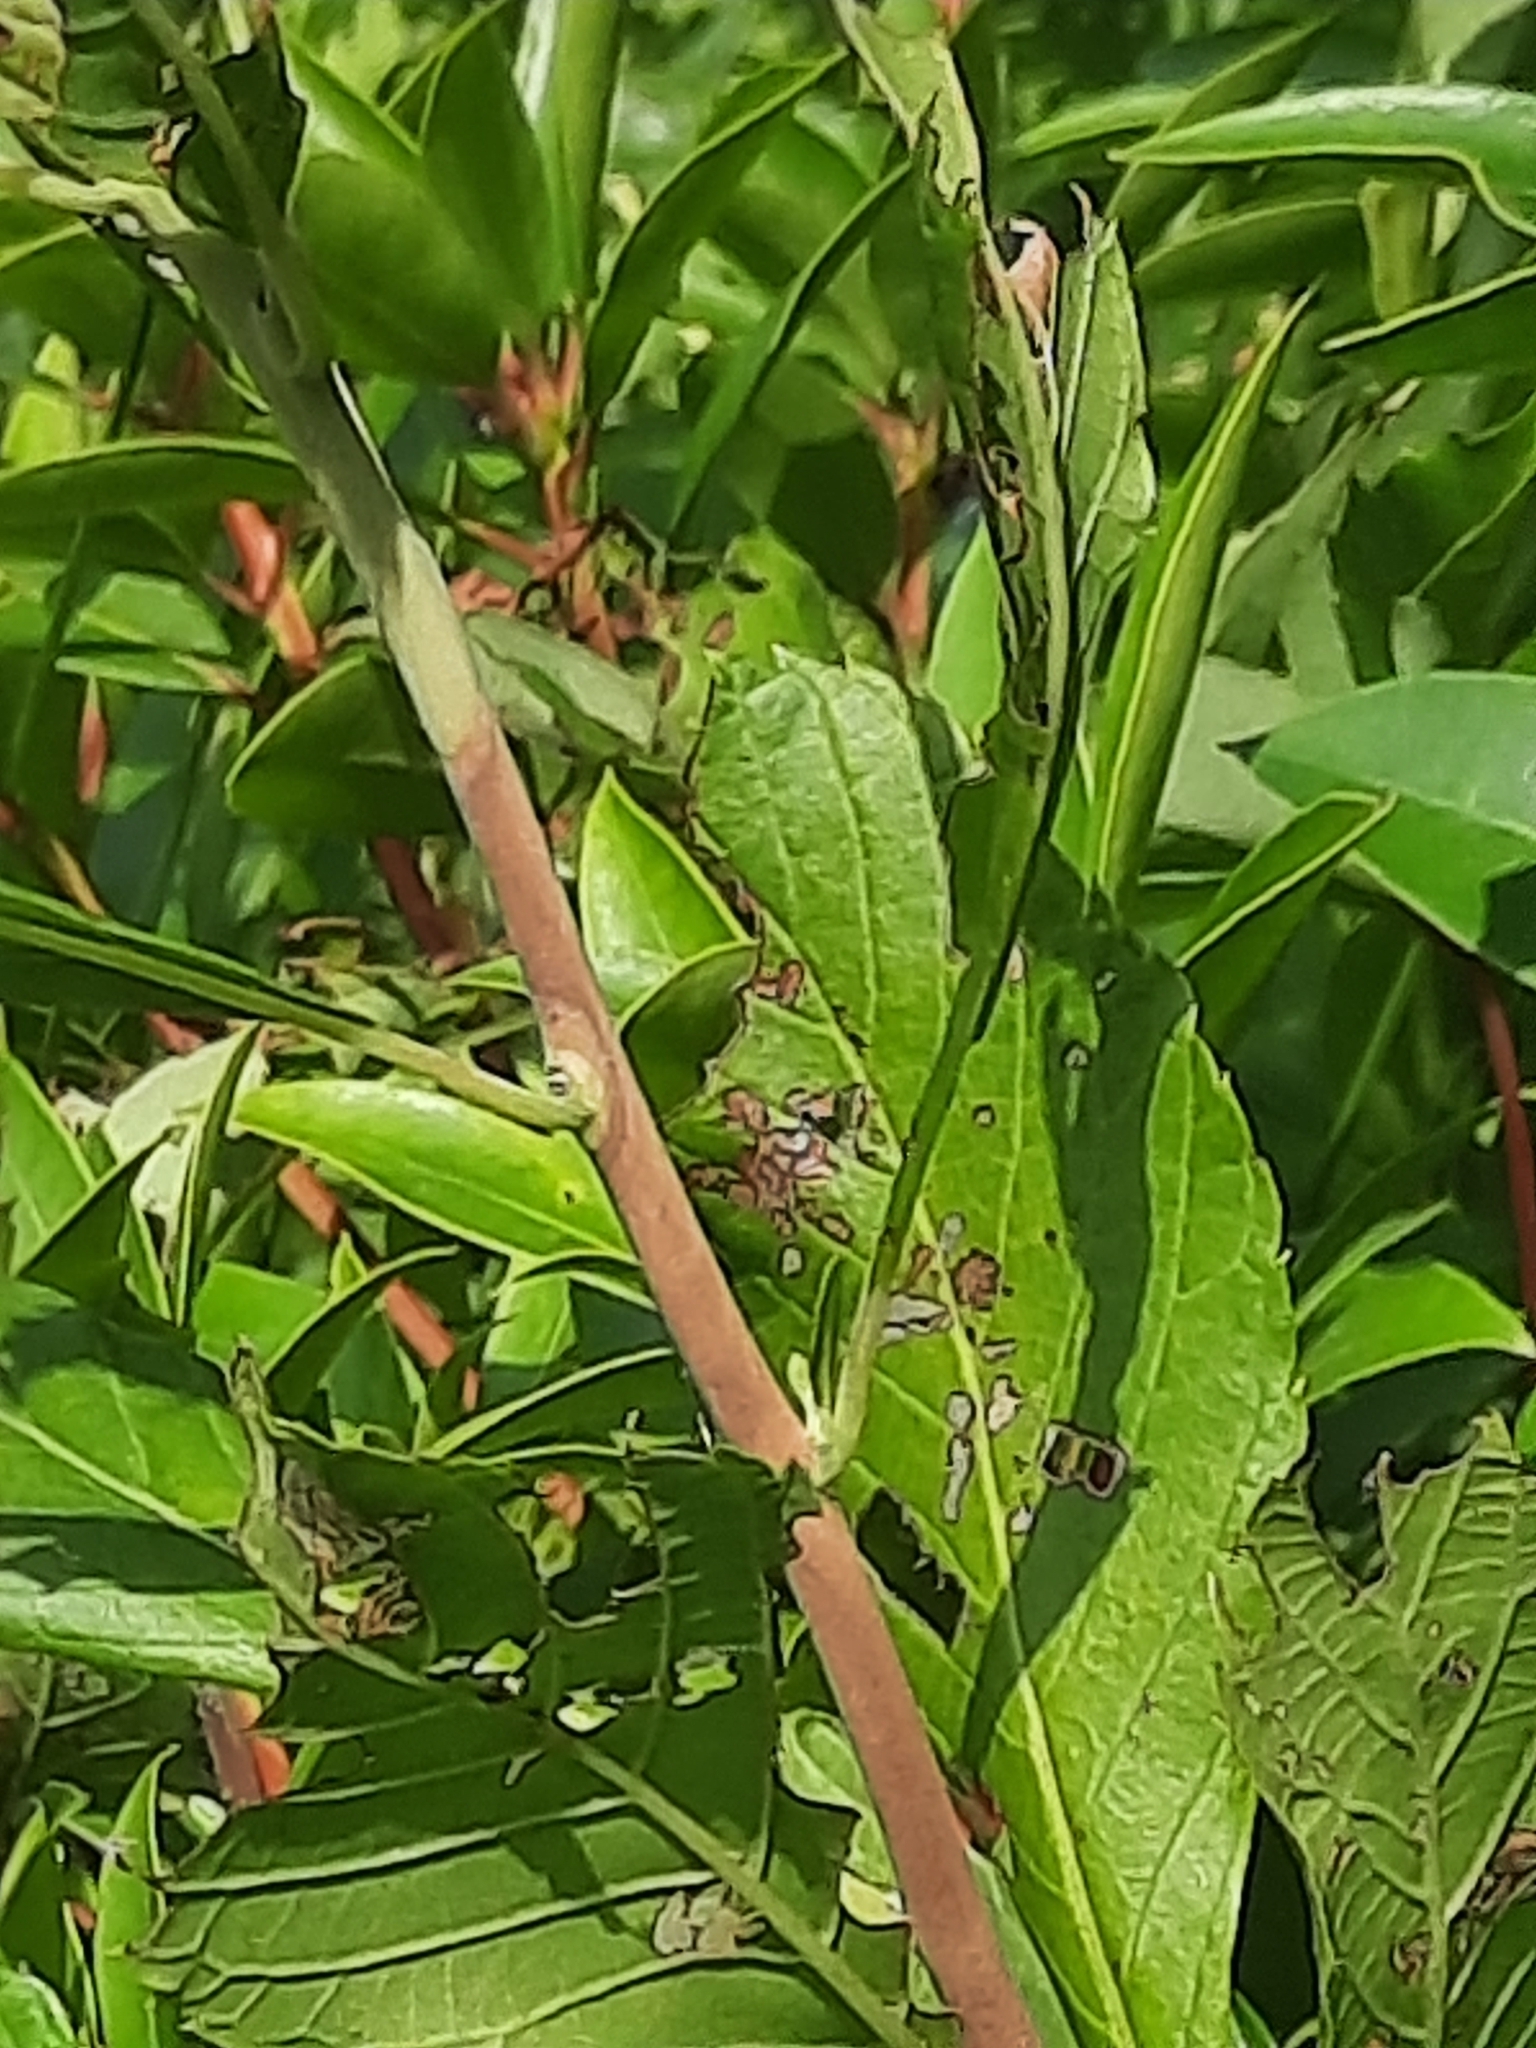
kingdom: Plantae
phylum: Tracheophyta
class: Magnoliopsida
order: Ericales
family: Clethraceae
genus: Clethra
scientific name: Clethra alnifolia
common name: Sweet pepperbush
